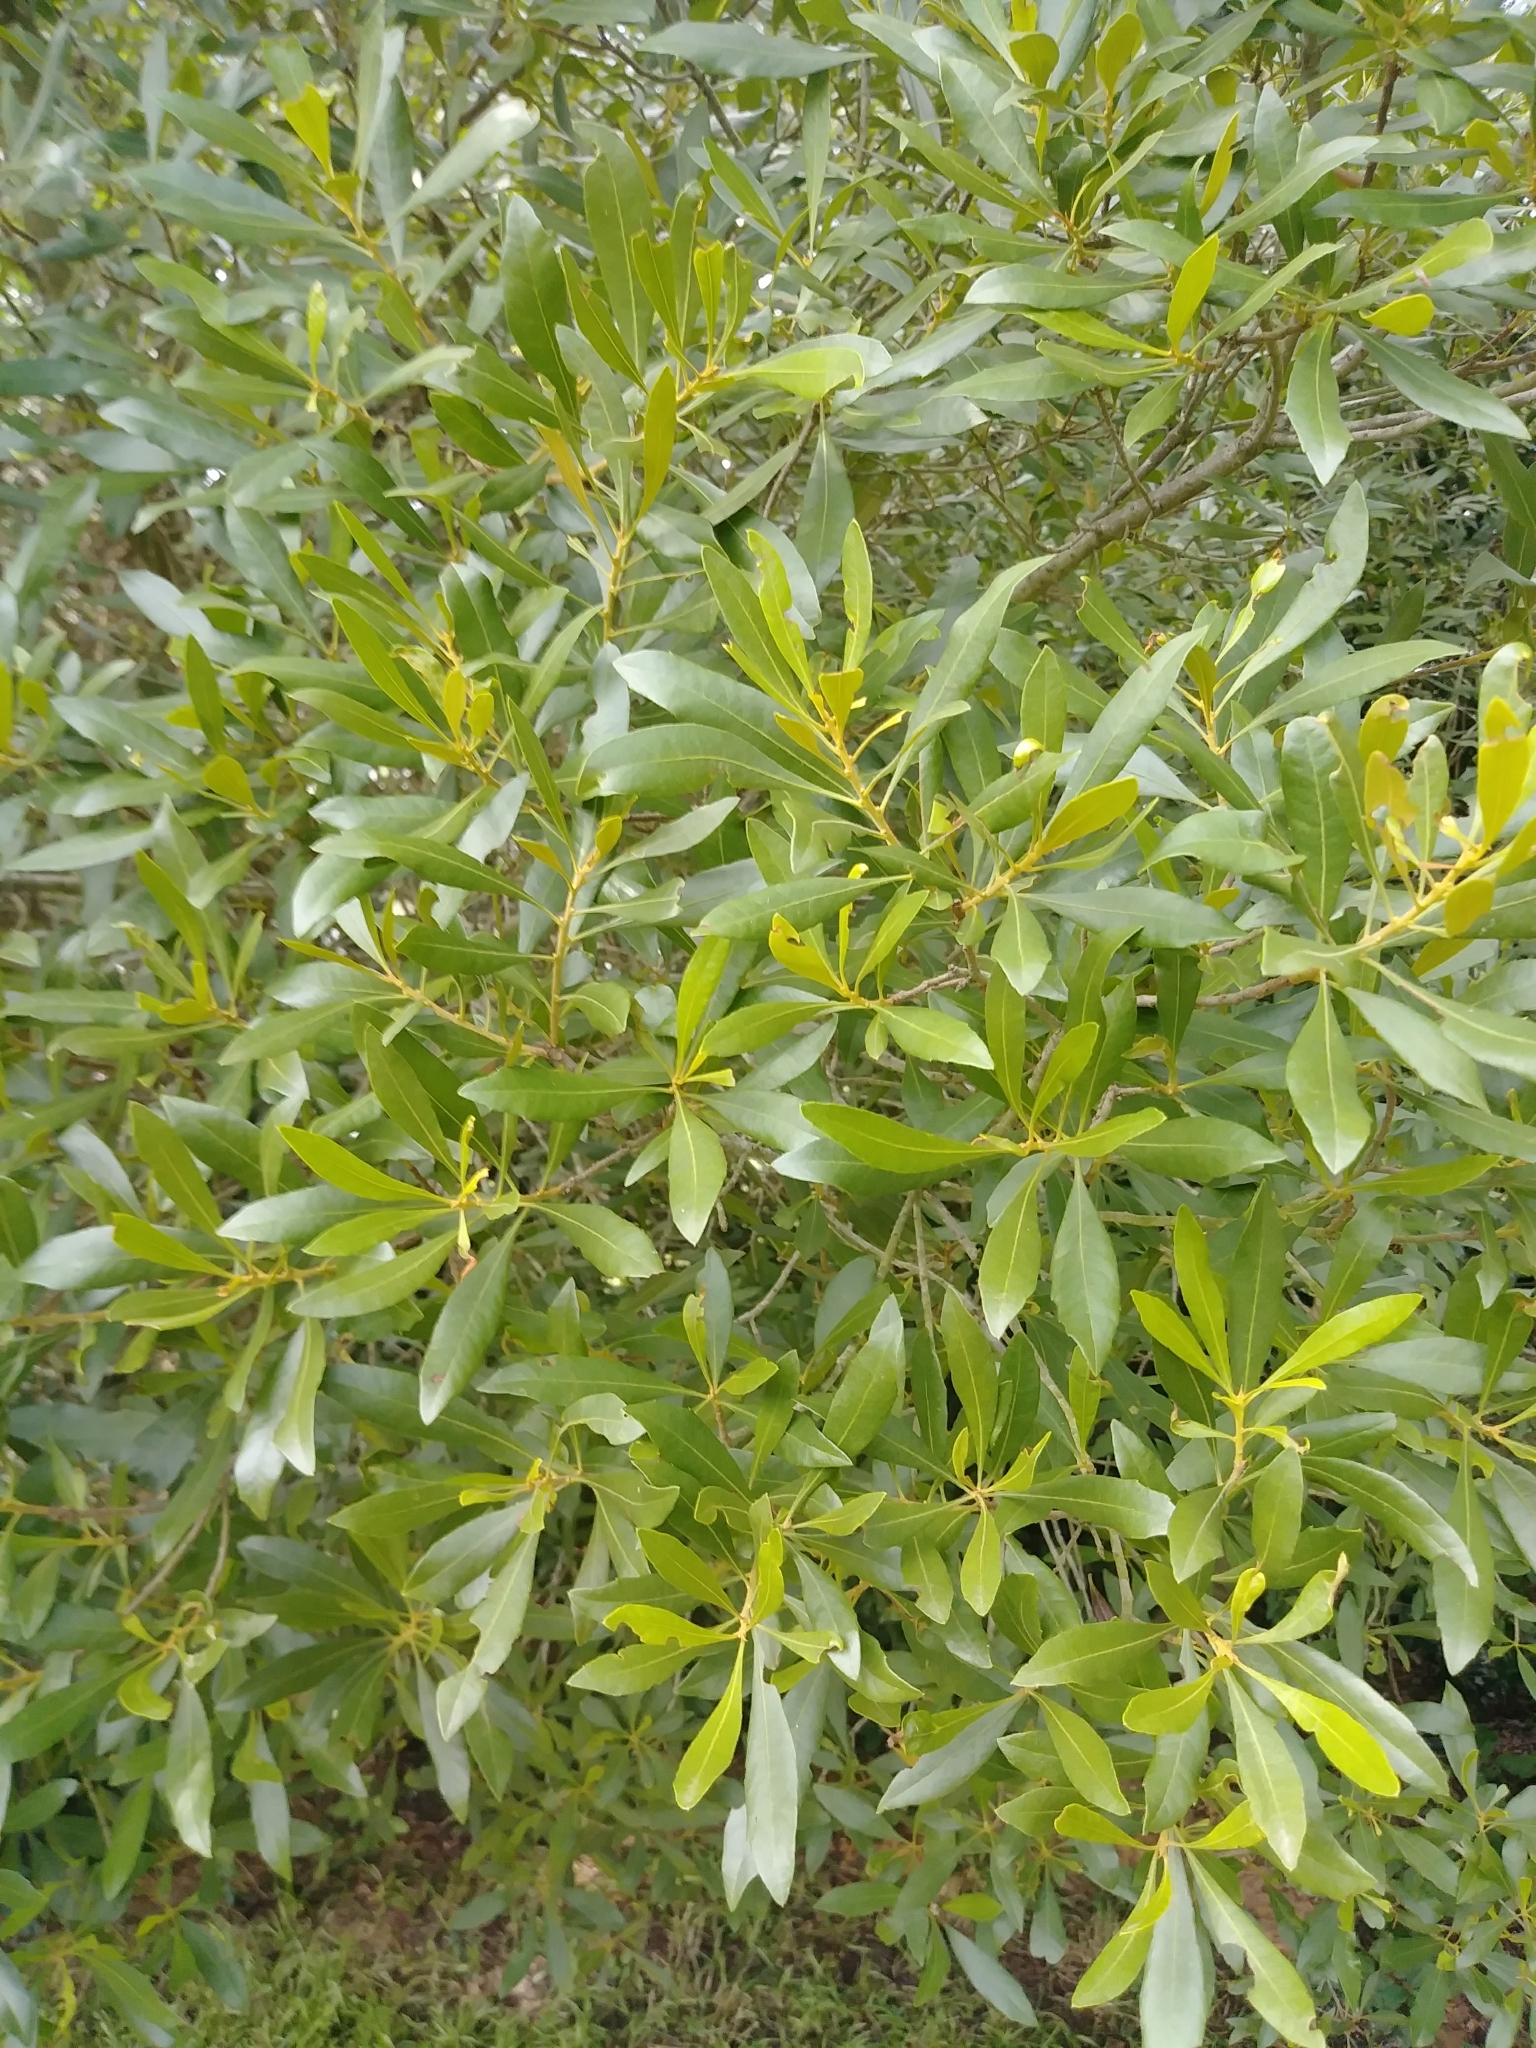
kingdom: Plantae
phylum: Tracheophyta
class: Magnoliopsida
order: Fagales
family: Myricaceae
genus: Morella
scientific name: Morella cerifera
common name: Wax myrtle
